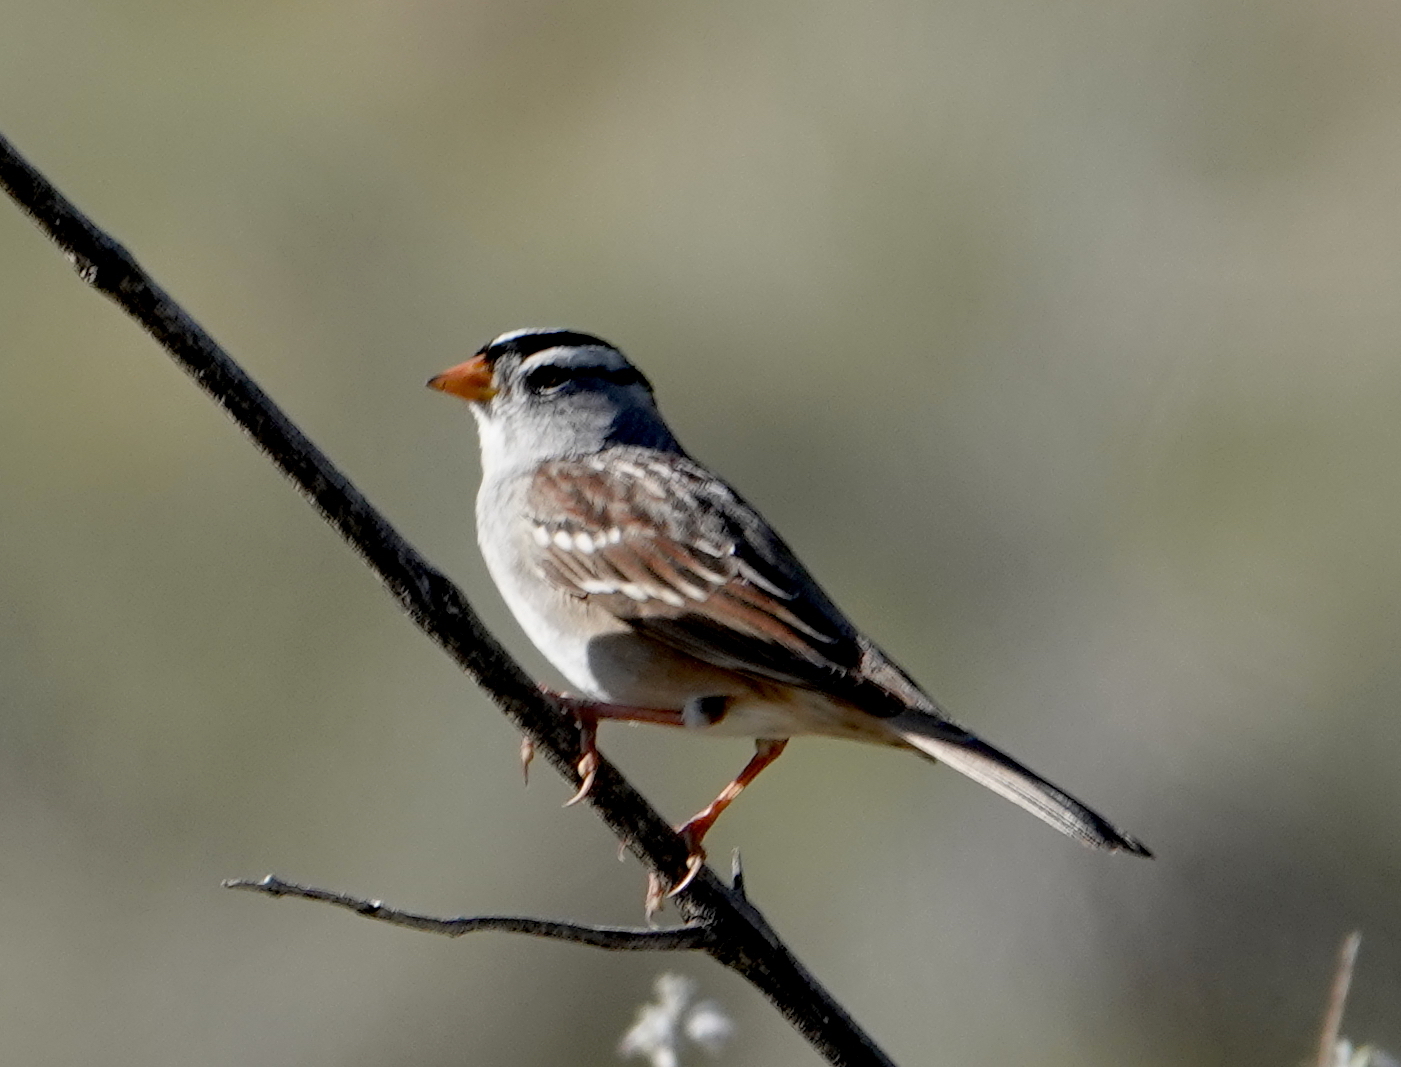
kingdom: Animalia
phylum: Chordata
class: Aves
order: Passeriformes
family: Passerellidae
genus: Zonotrichia
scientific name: Zonotrichia leucophrys
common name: White-crowned sparrow
